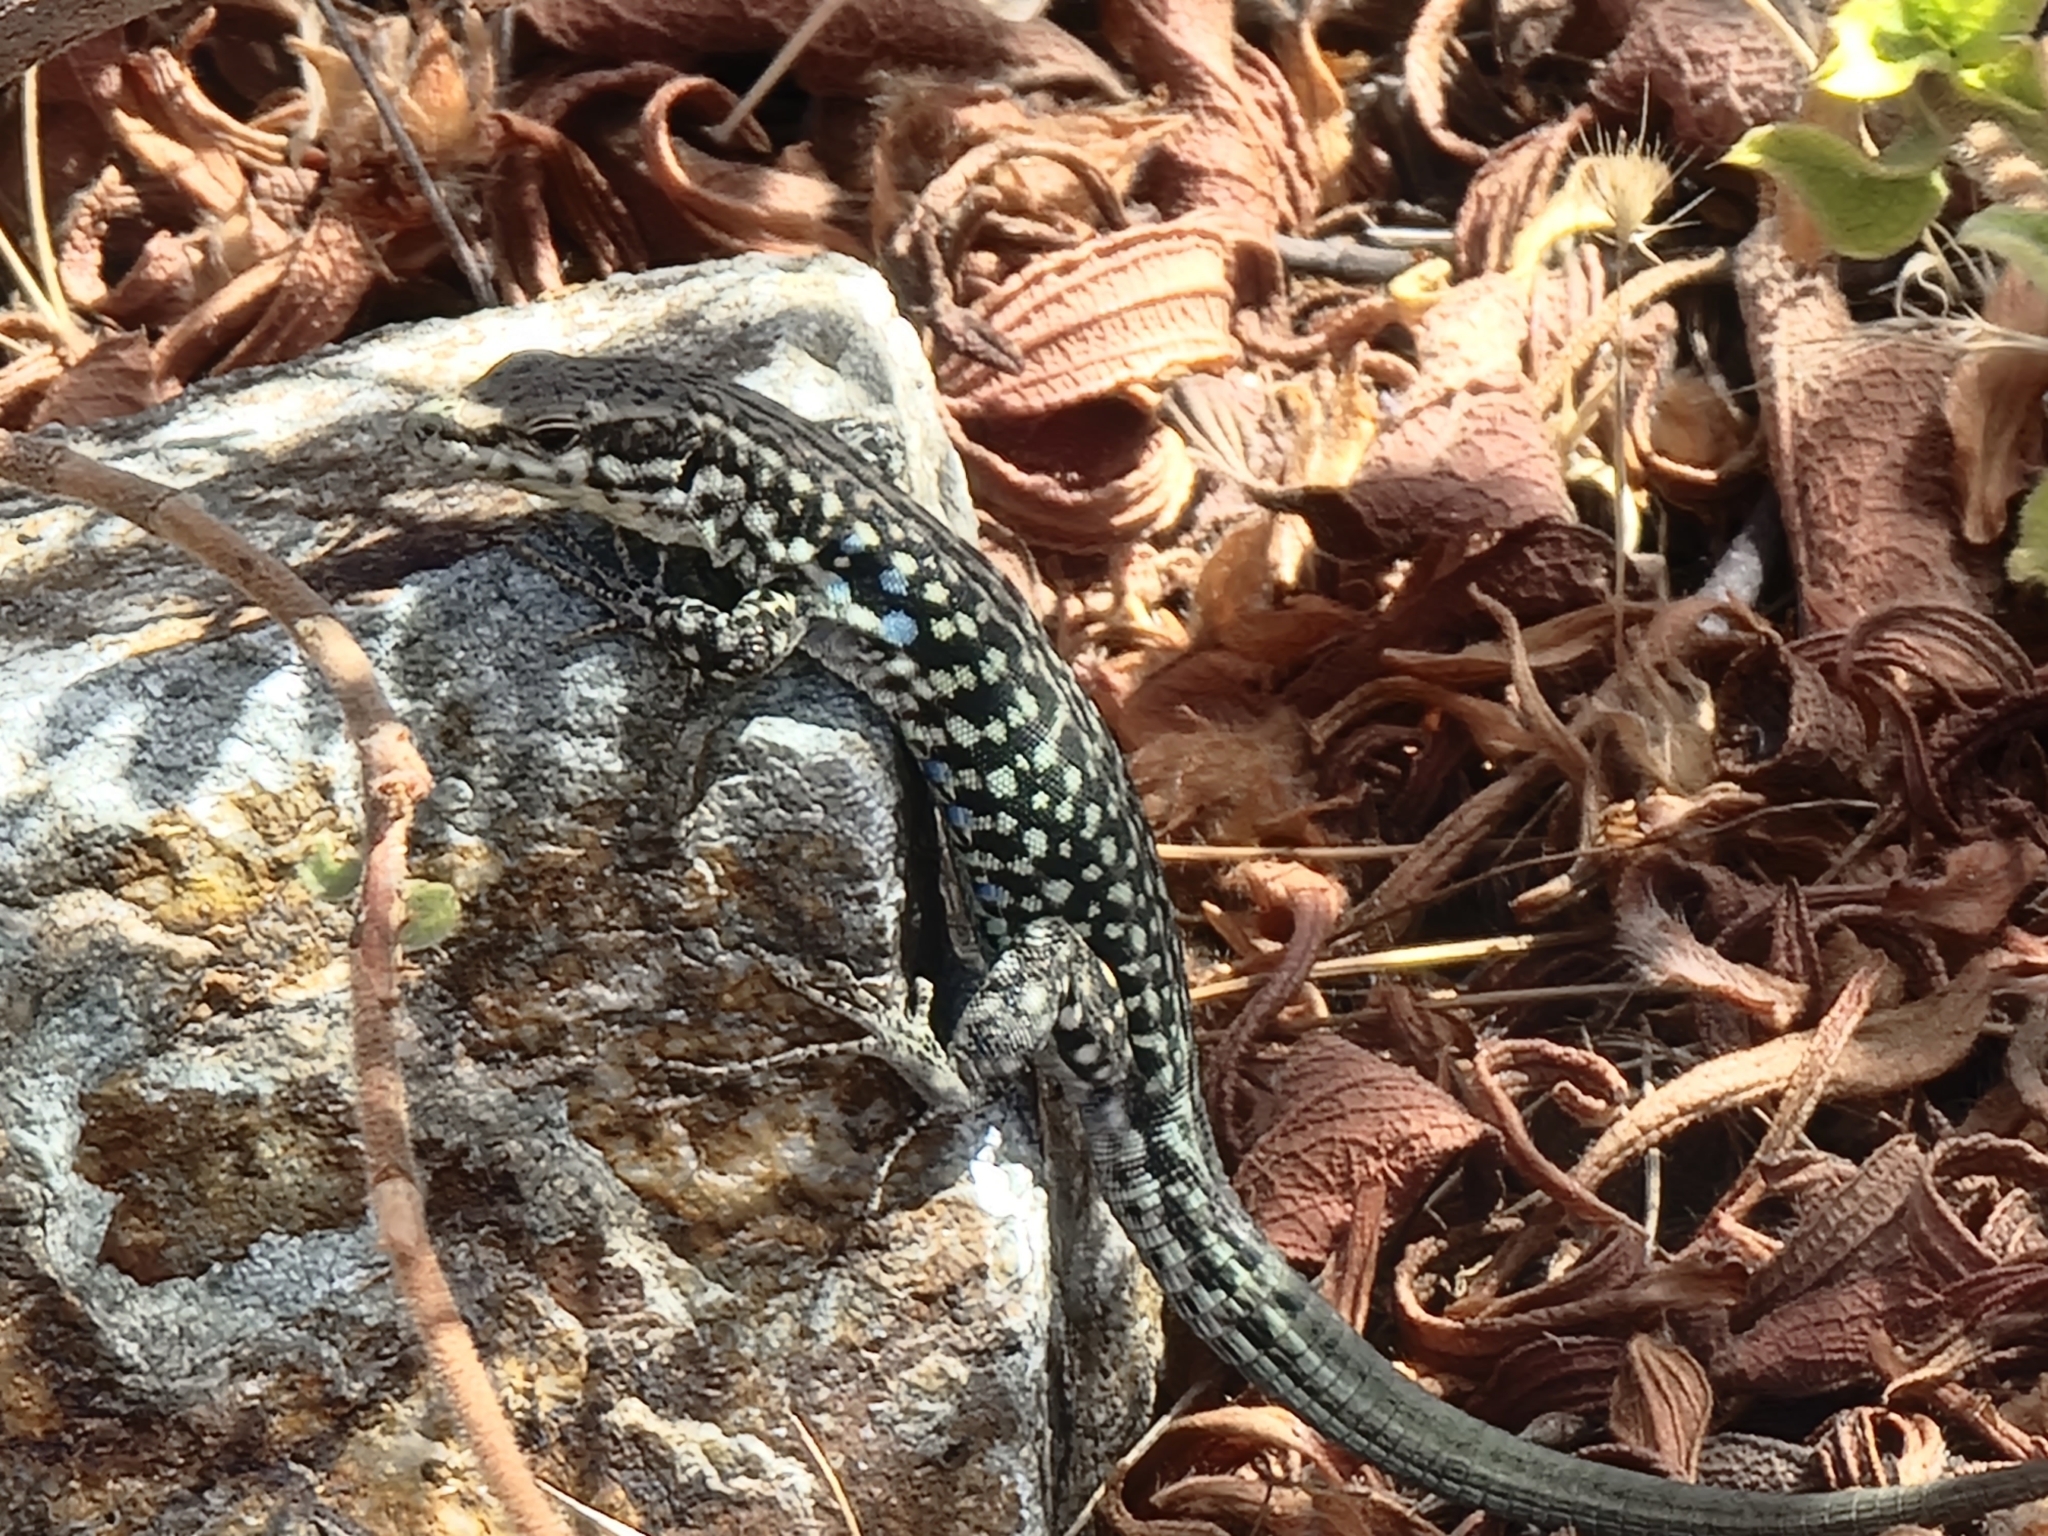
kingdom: Animalia
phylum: Chordata
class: Squamata
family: Lacertidae
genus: Podarcis
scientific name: Podarcis tiliguerta
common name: Tyrrhenian wall lizard
